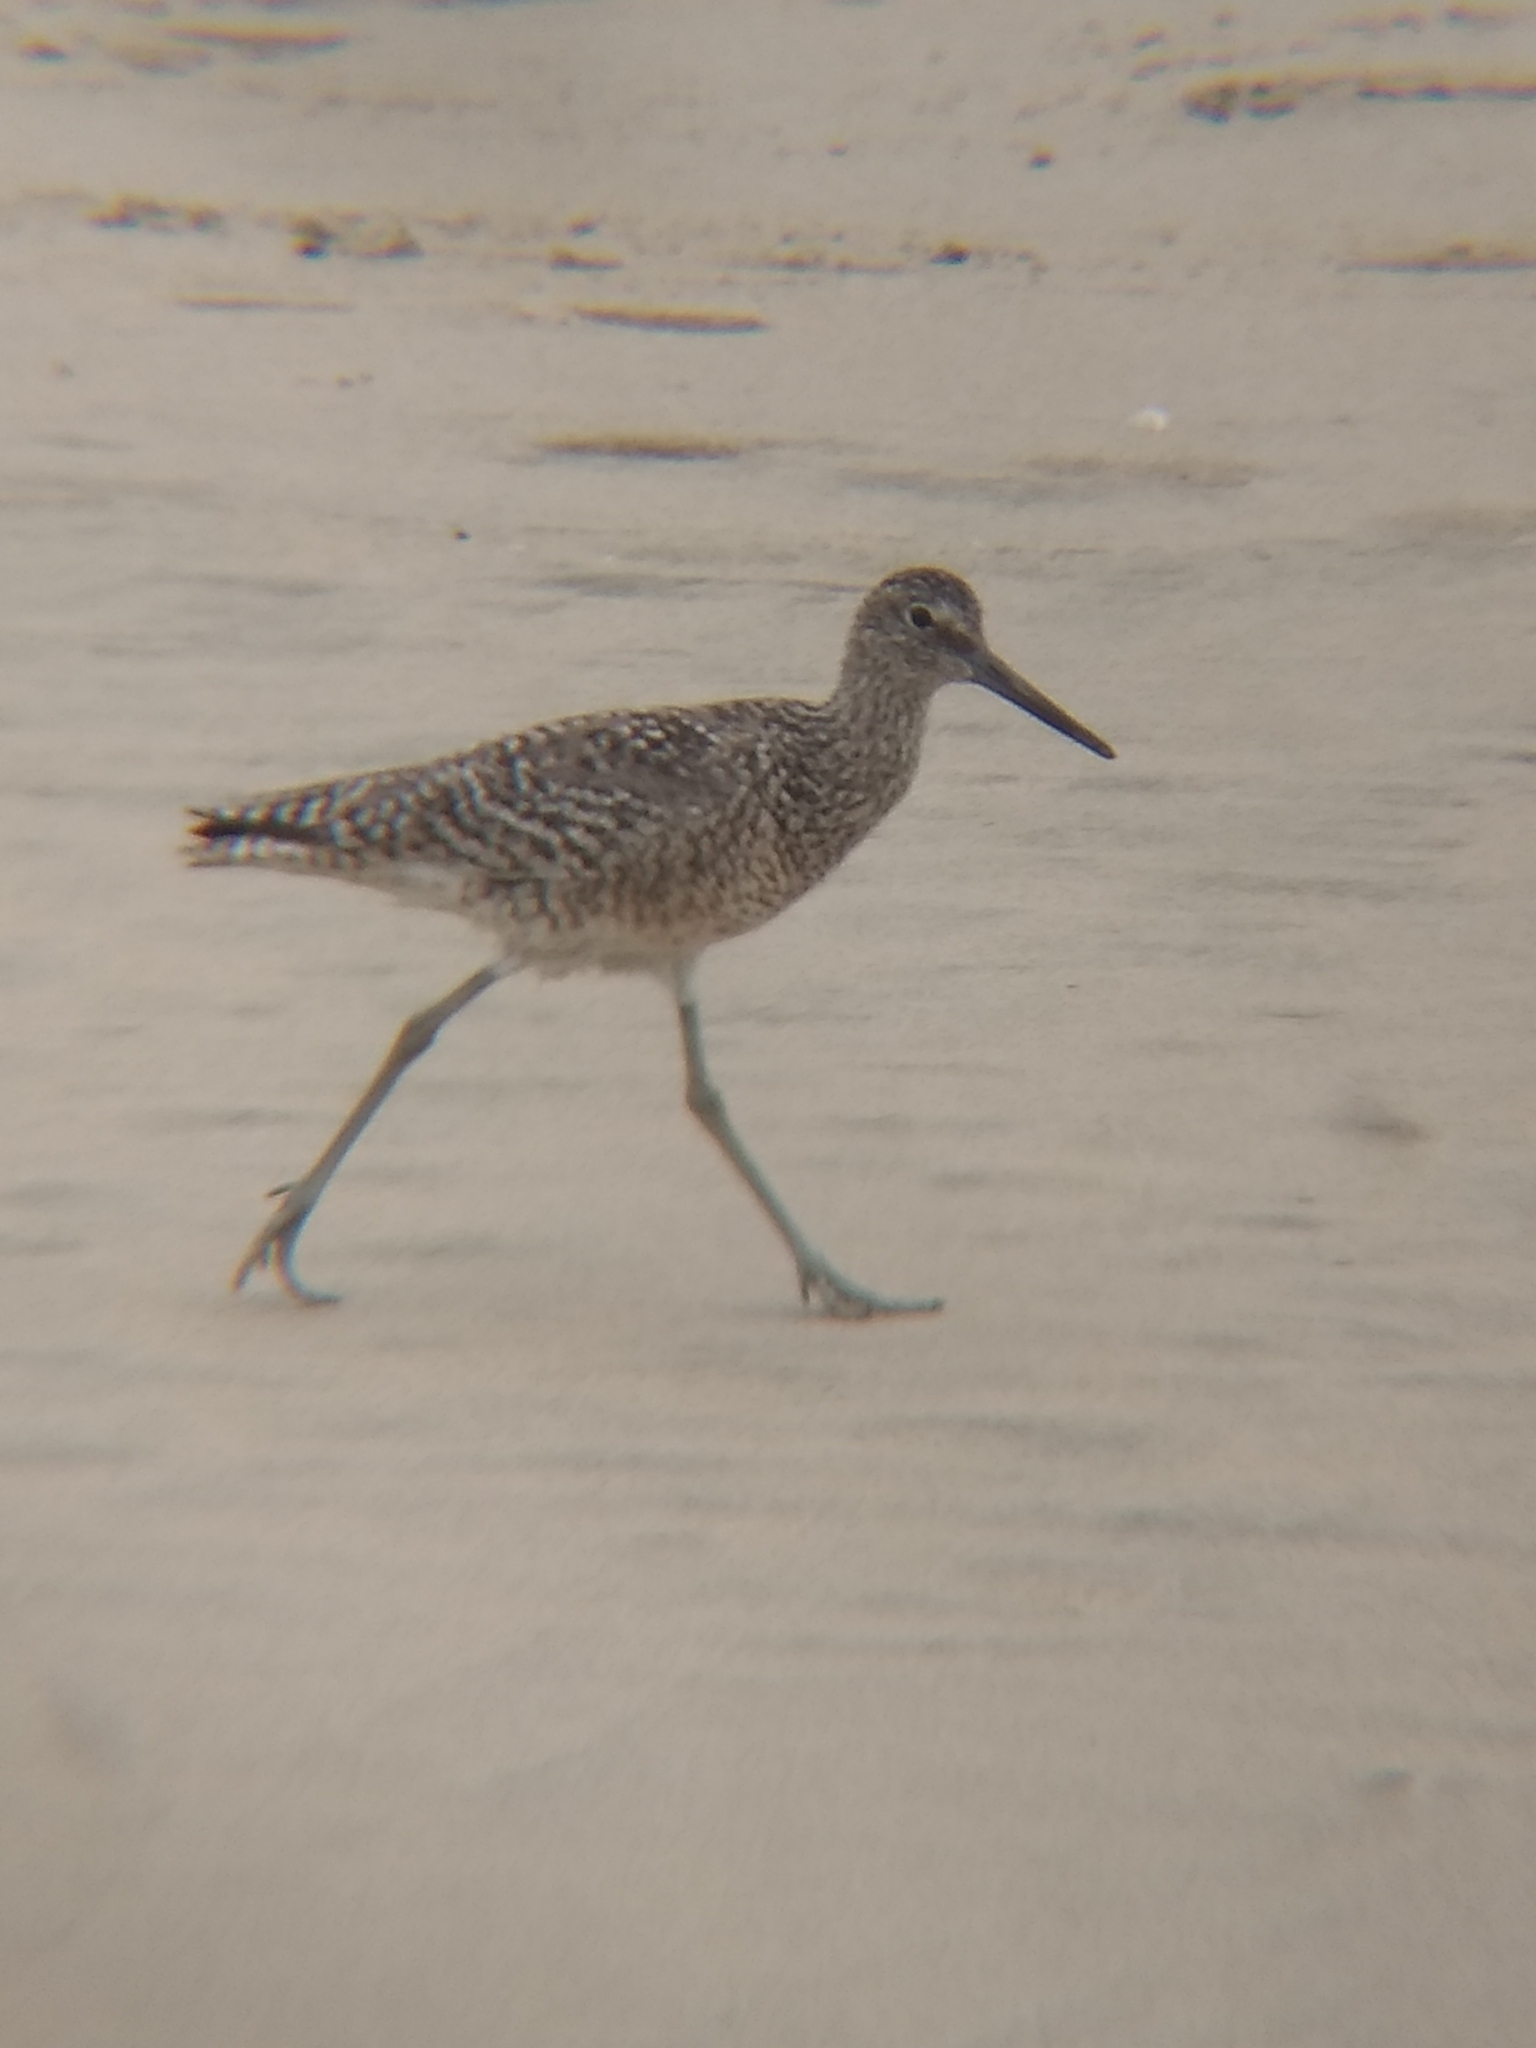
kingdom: Animalia
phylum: Chordata
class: Aves
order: Charadriiformes
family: Scolopacidae
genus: Tringa
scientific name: Tringa semipalmata
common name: Willet
